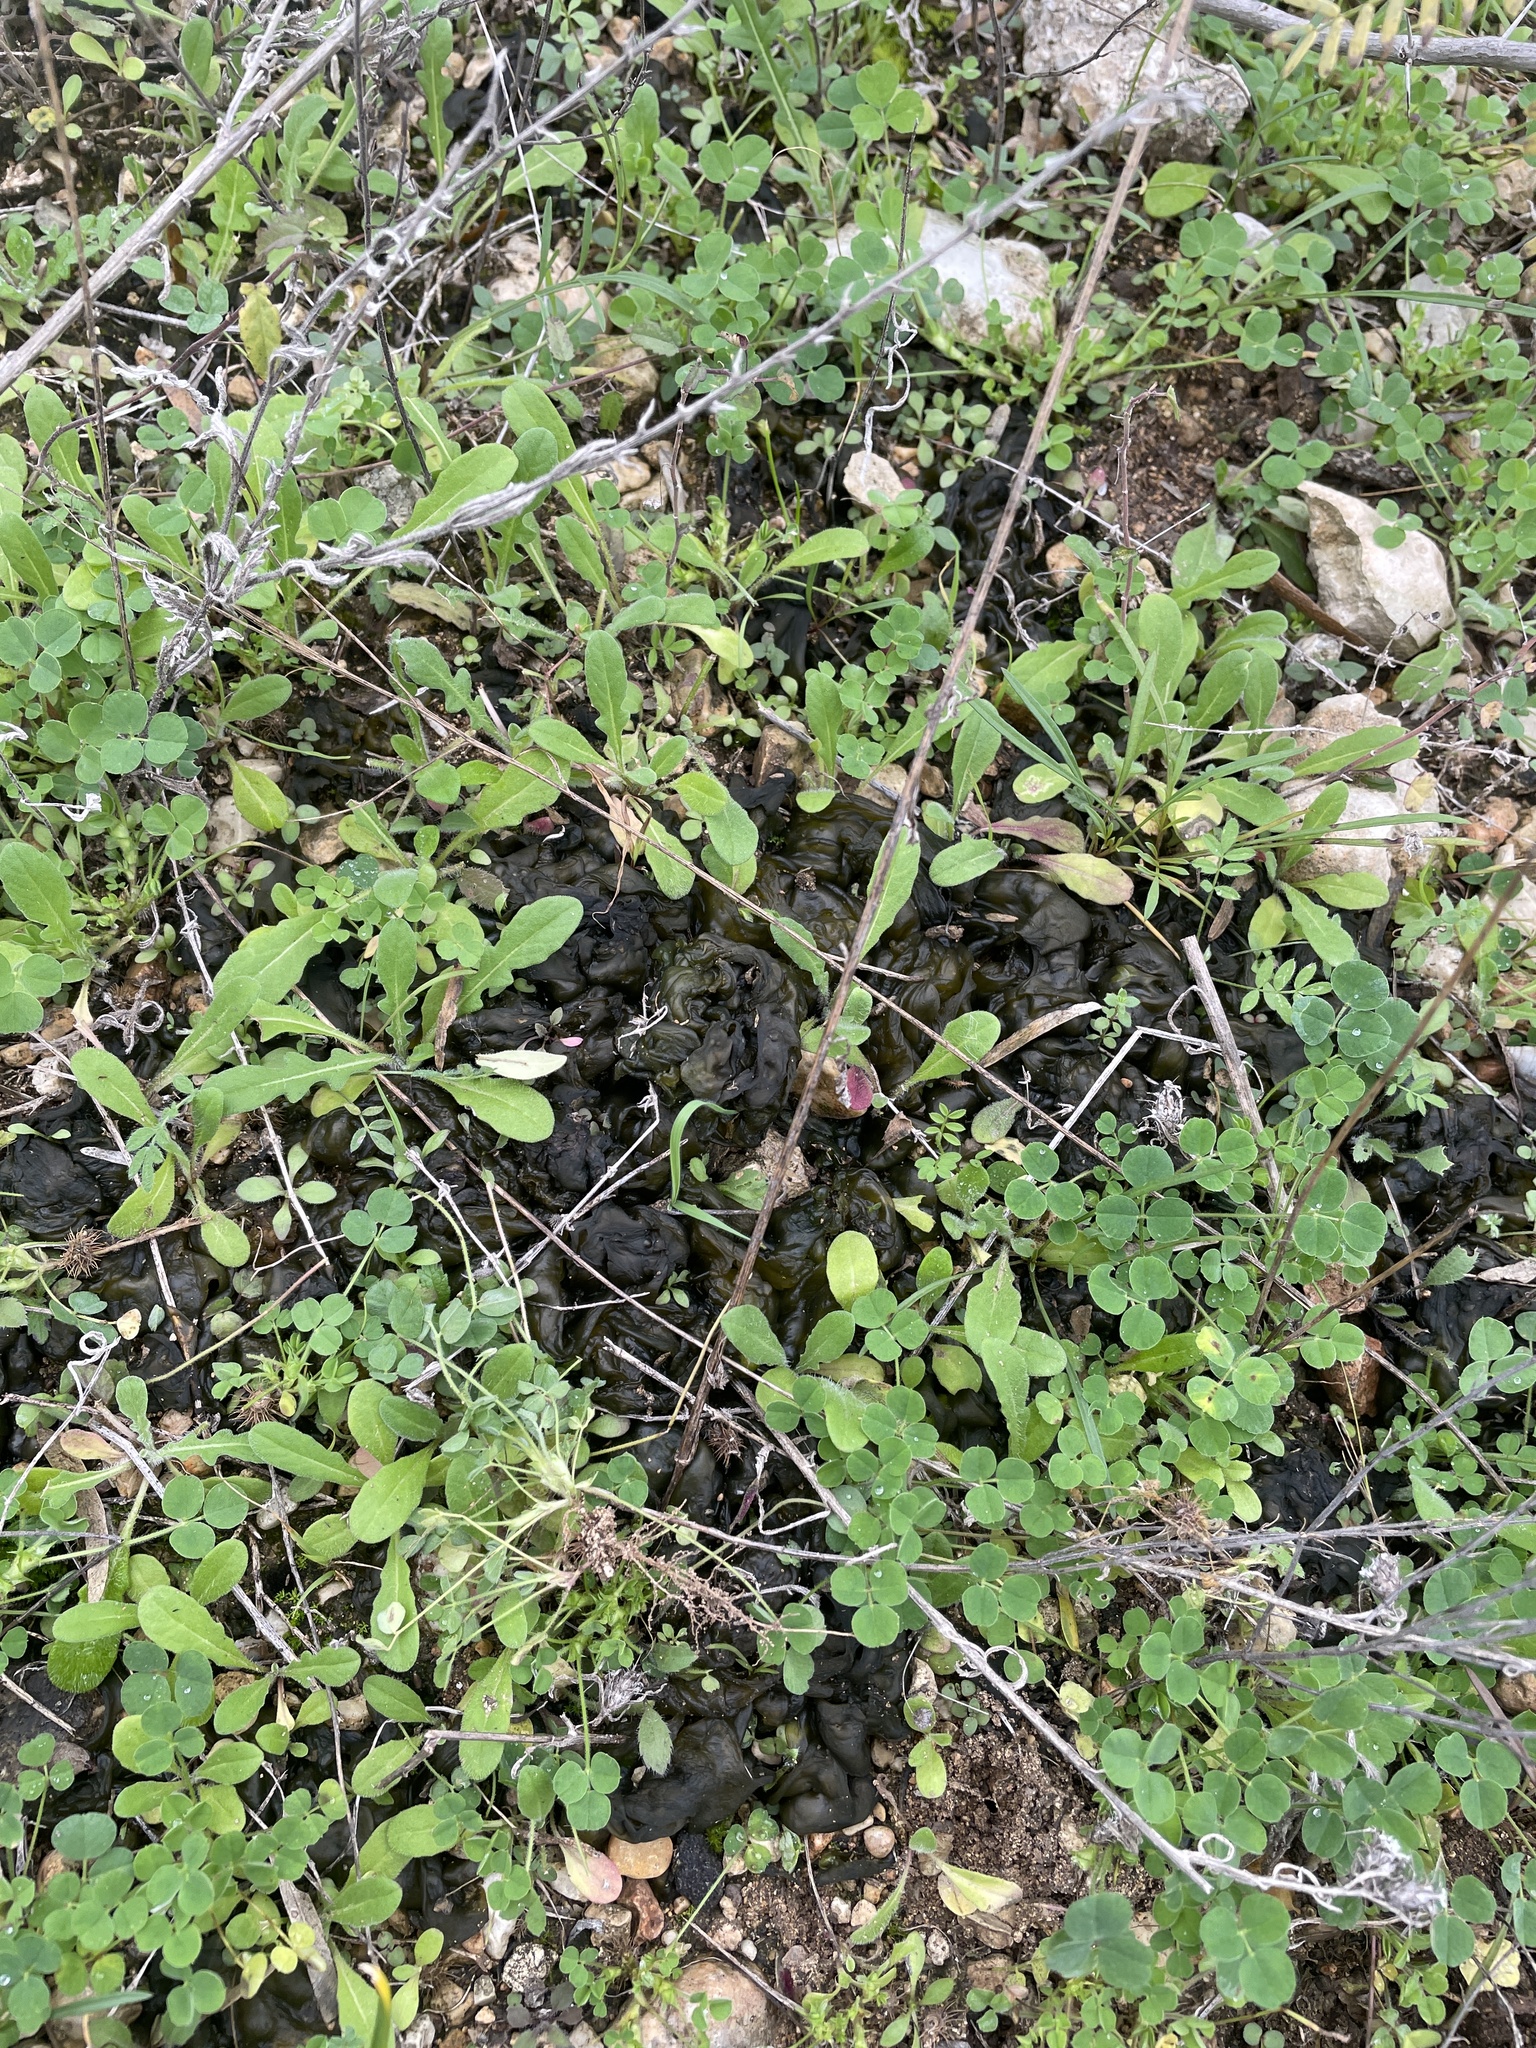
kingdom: Bacteria
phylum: Cyanobacteria
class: Cyanobacteriia
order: Cyanobacteriales
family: Nostocaceae
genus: Nostoc
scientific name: Nostoc commune
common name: Star jelly
